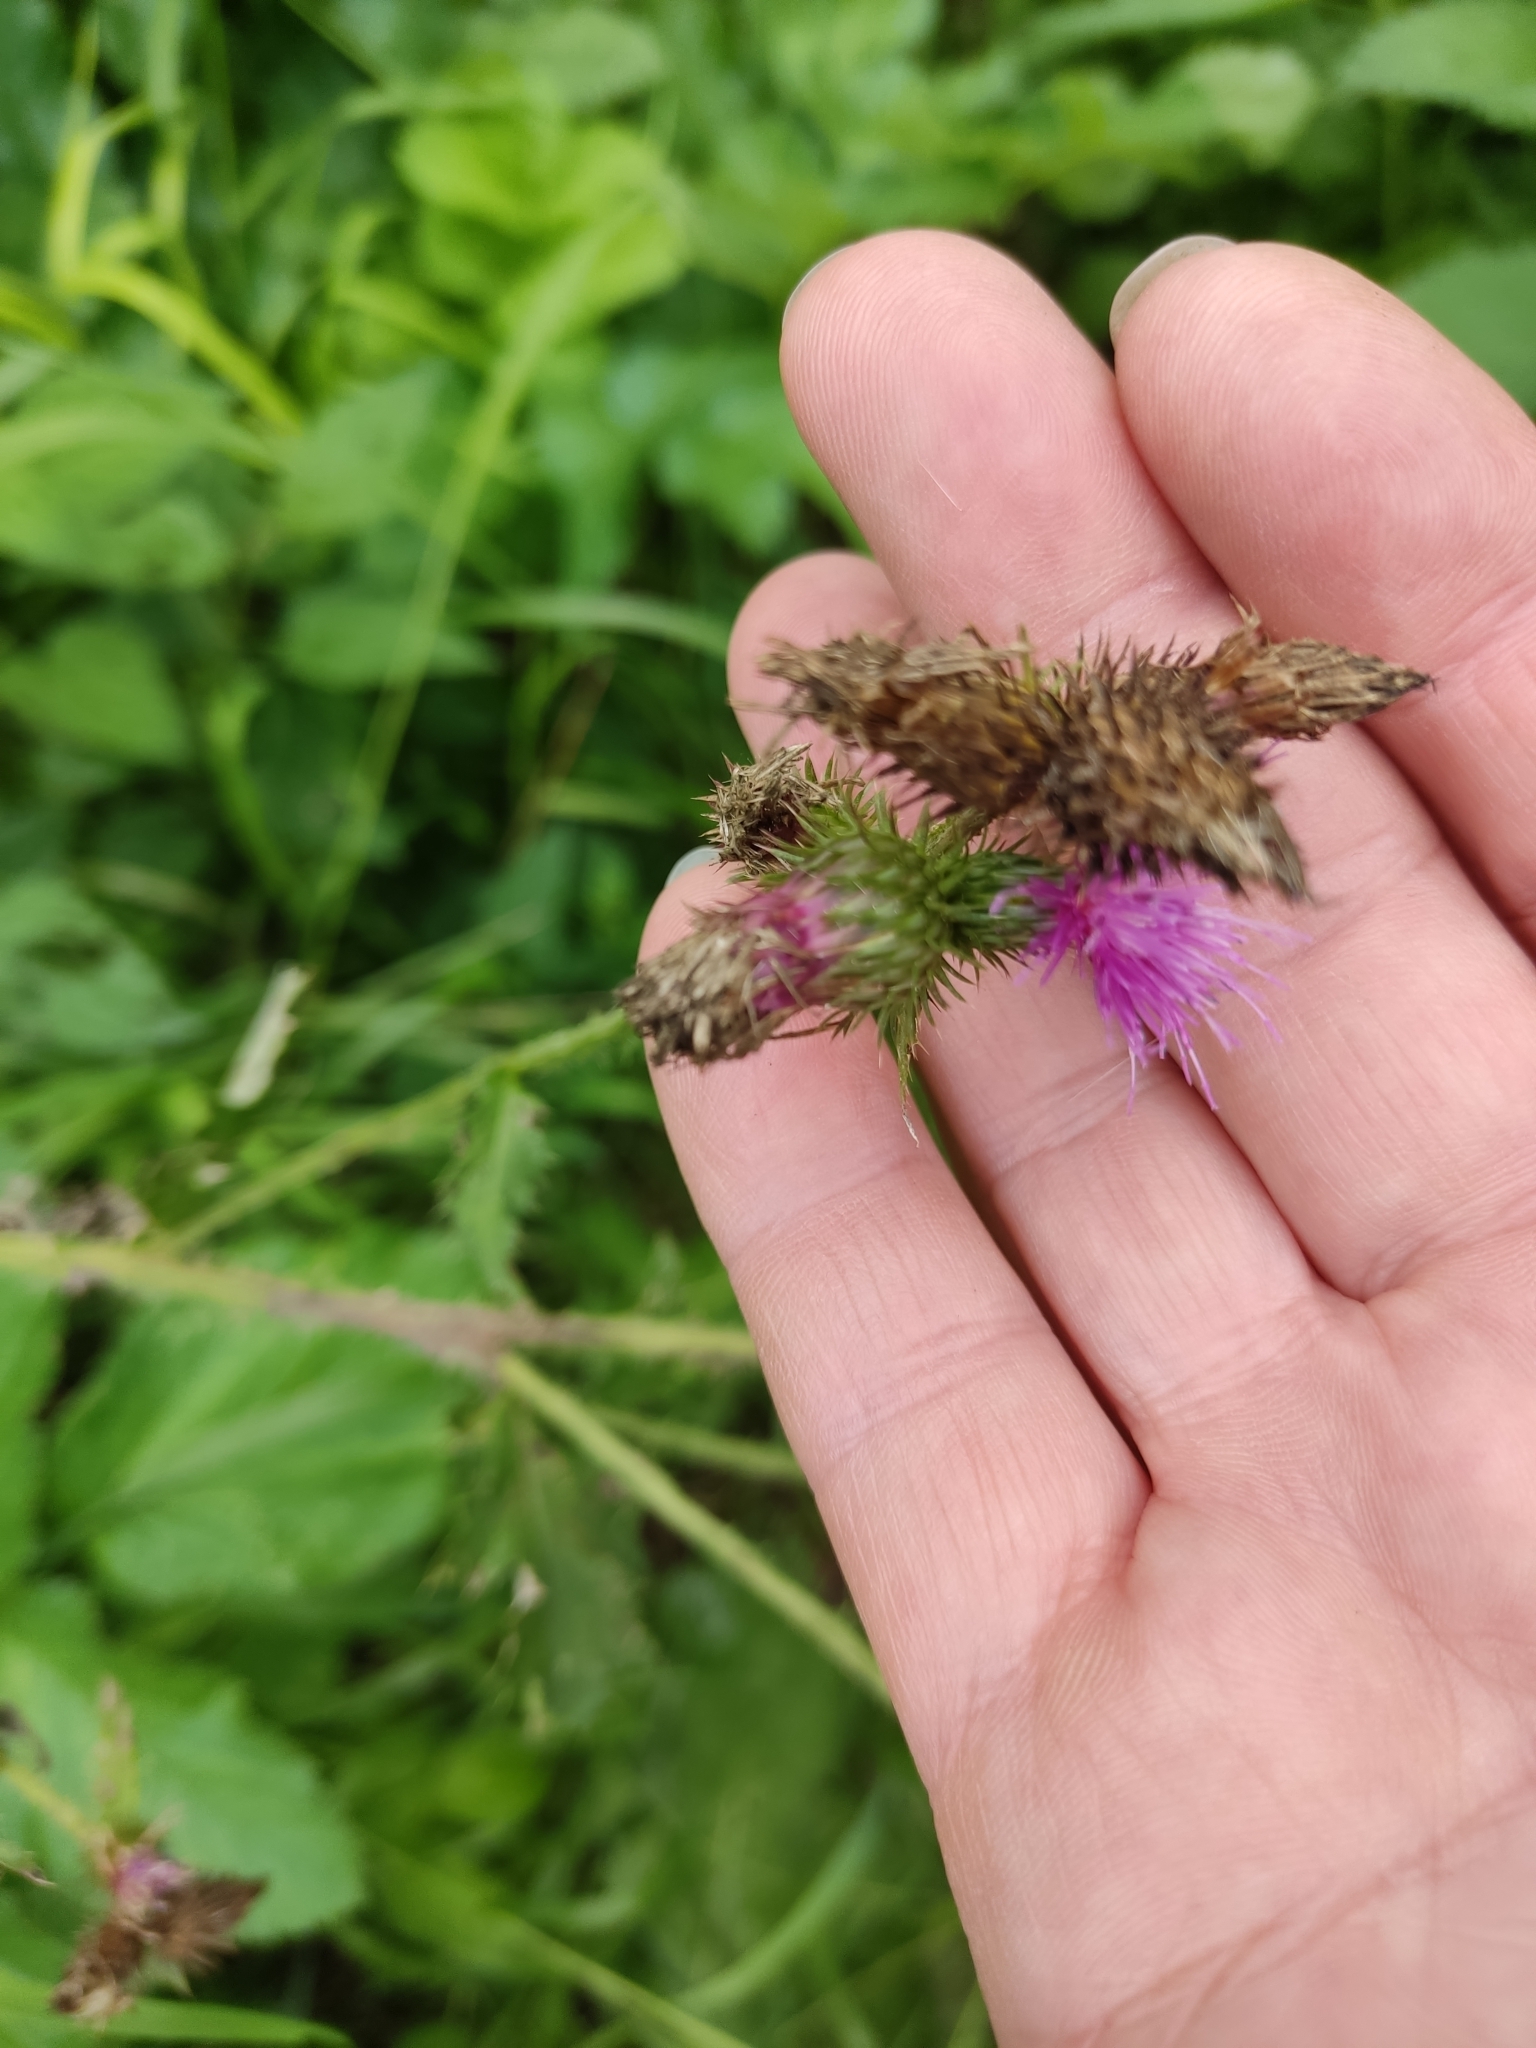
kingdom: Plantae
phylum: Tracheophyta
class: Magnoliopsida
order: Asterales
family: Asteraceae
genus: Carduus
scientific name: Carduus crispus
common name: Welted thistle
